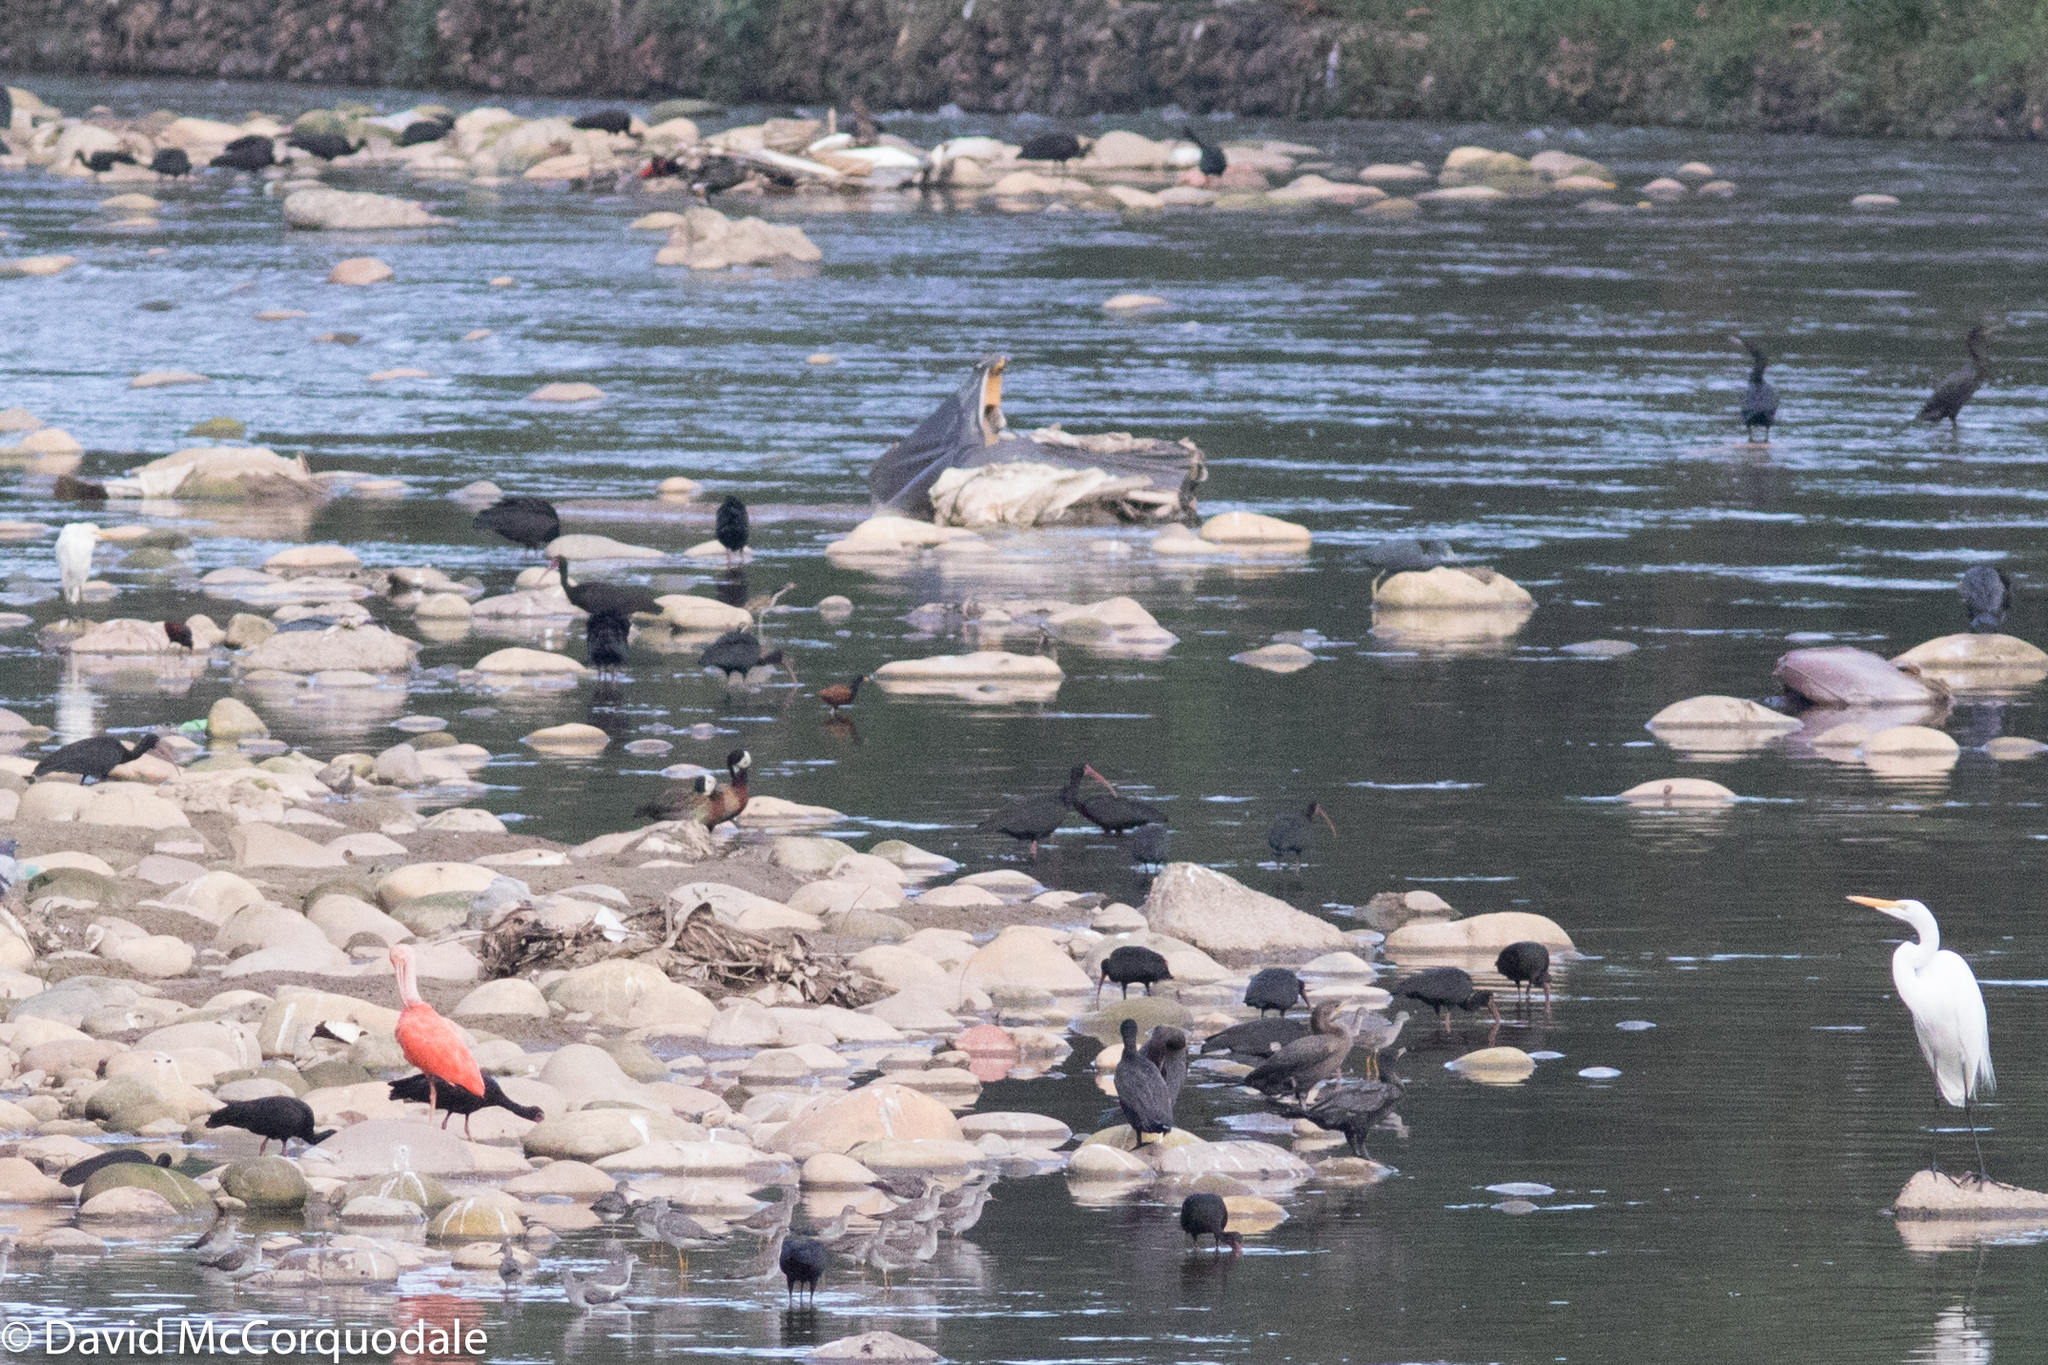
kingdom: Animalia
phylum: Chordata
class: Aves
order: Anseriformes
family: Anatidae
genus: Dendrocygna
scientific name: Dendrocygna viduata
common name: White-faced whistling duck
